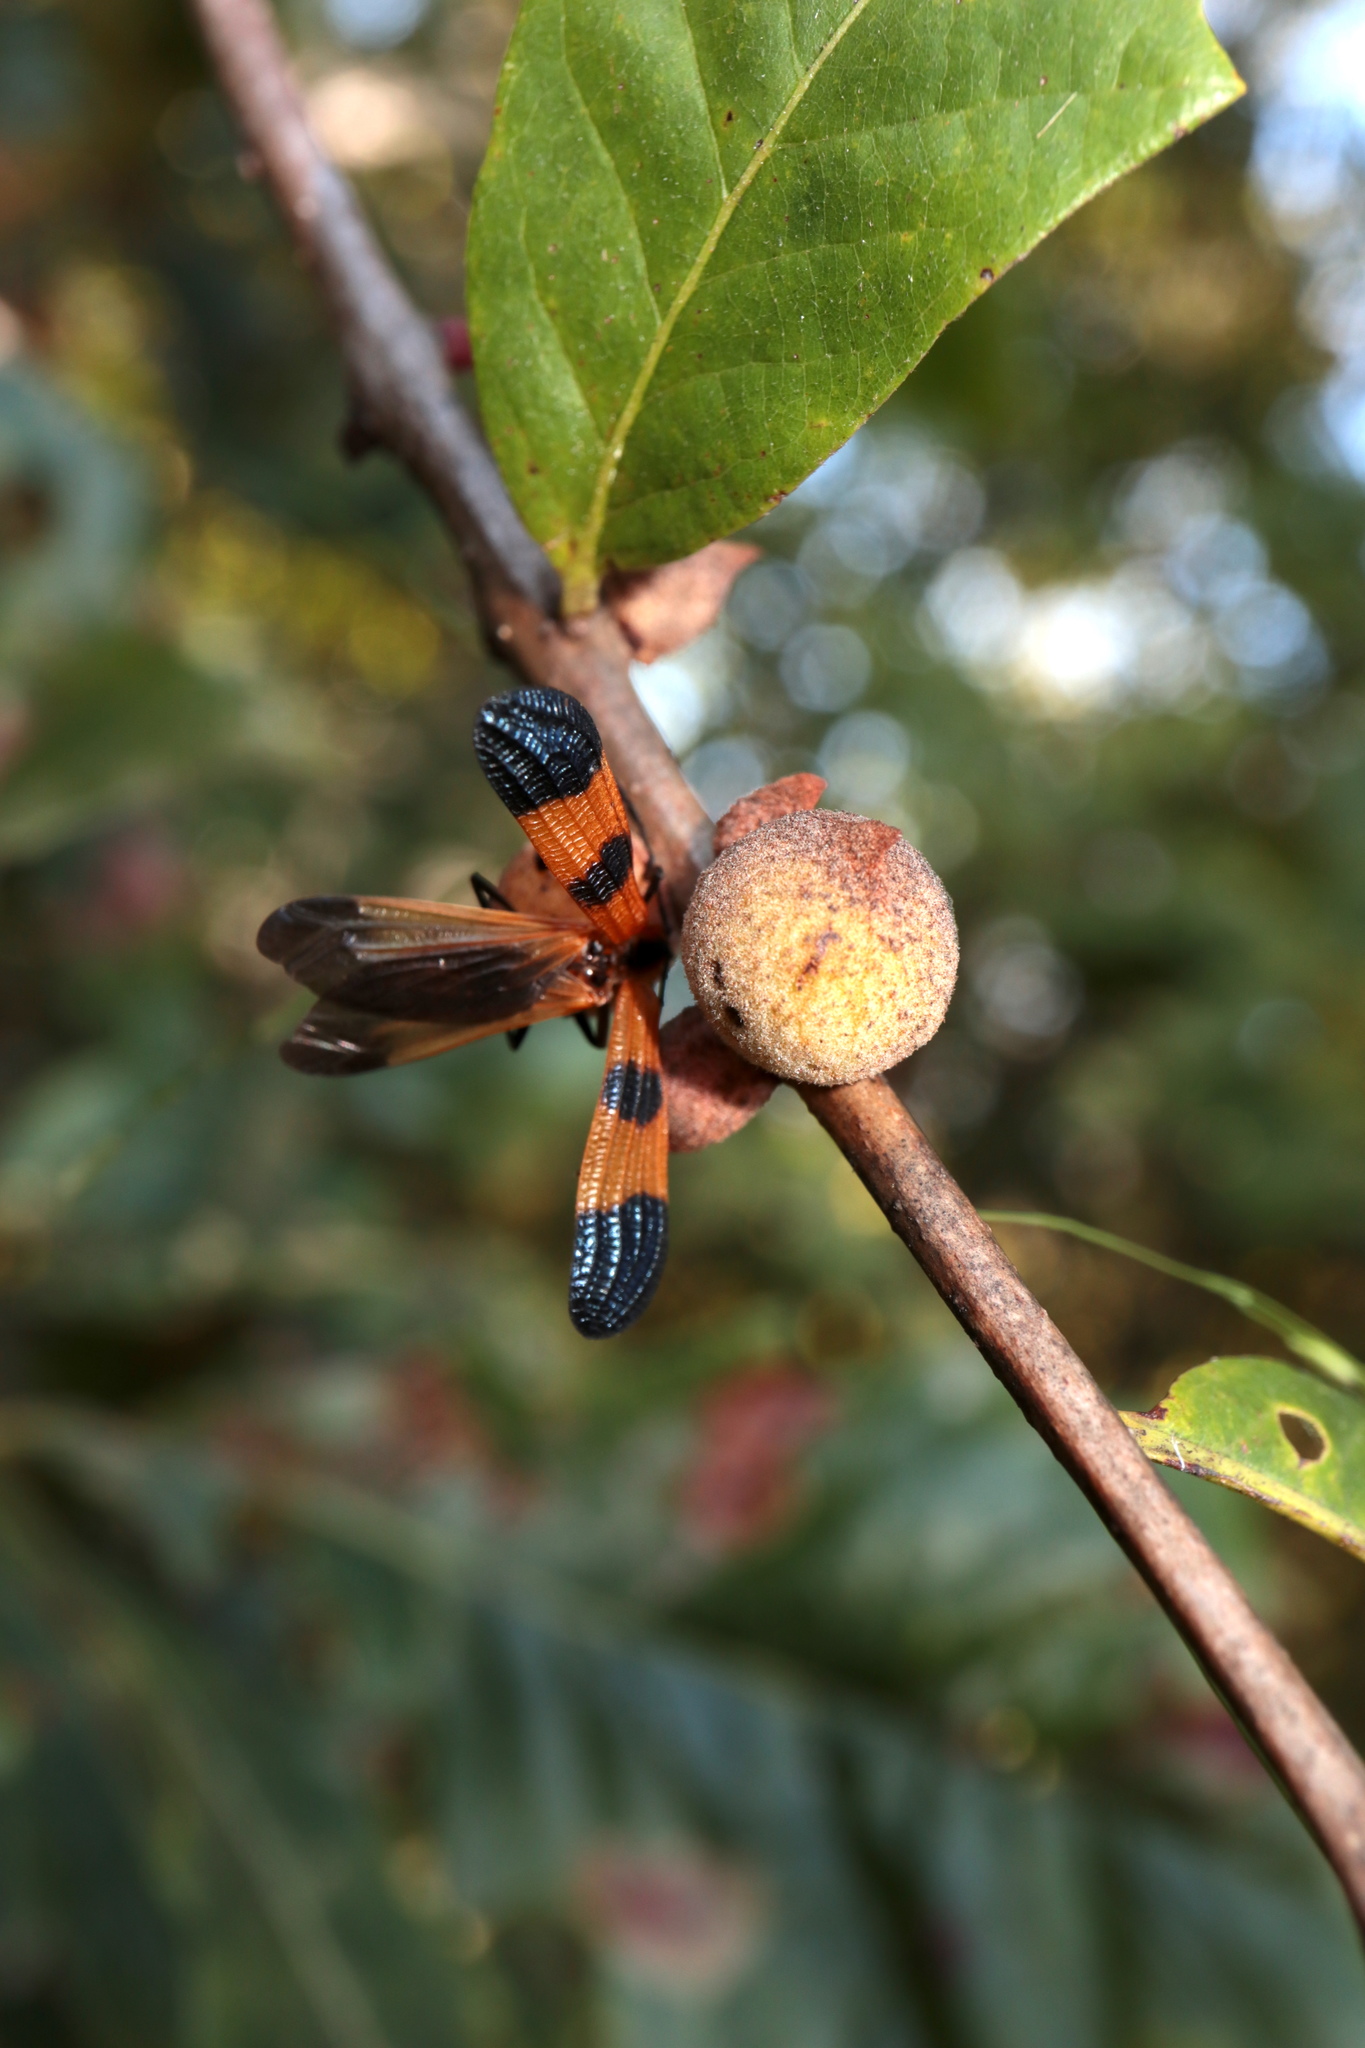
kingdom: Animalia
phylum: Arthropoda
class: Insecta
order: Coleoptera
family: Lycidae
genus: Calopteron
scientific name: Calopteron terminale
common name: End band net-winged beetle
